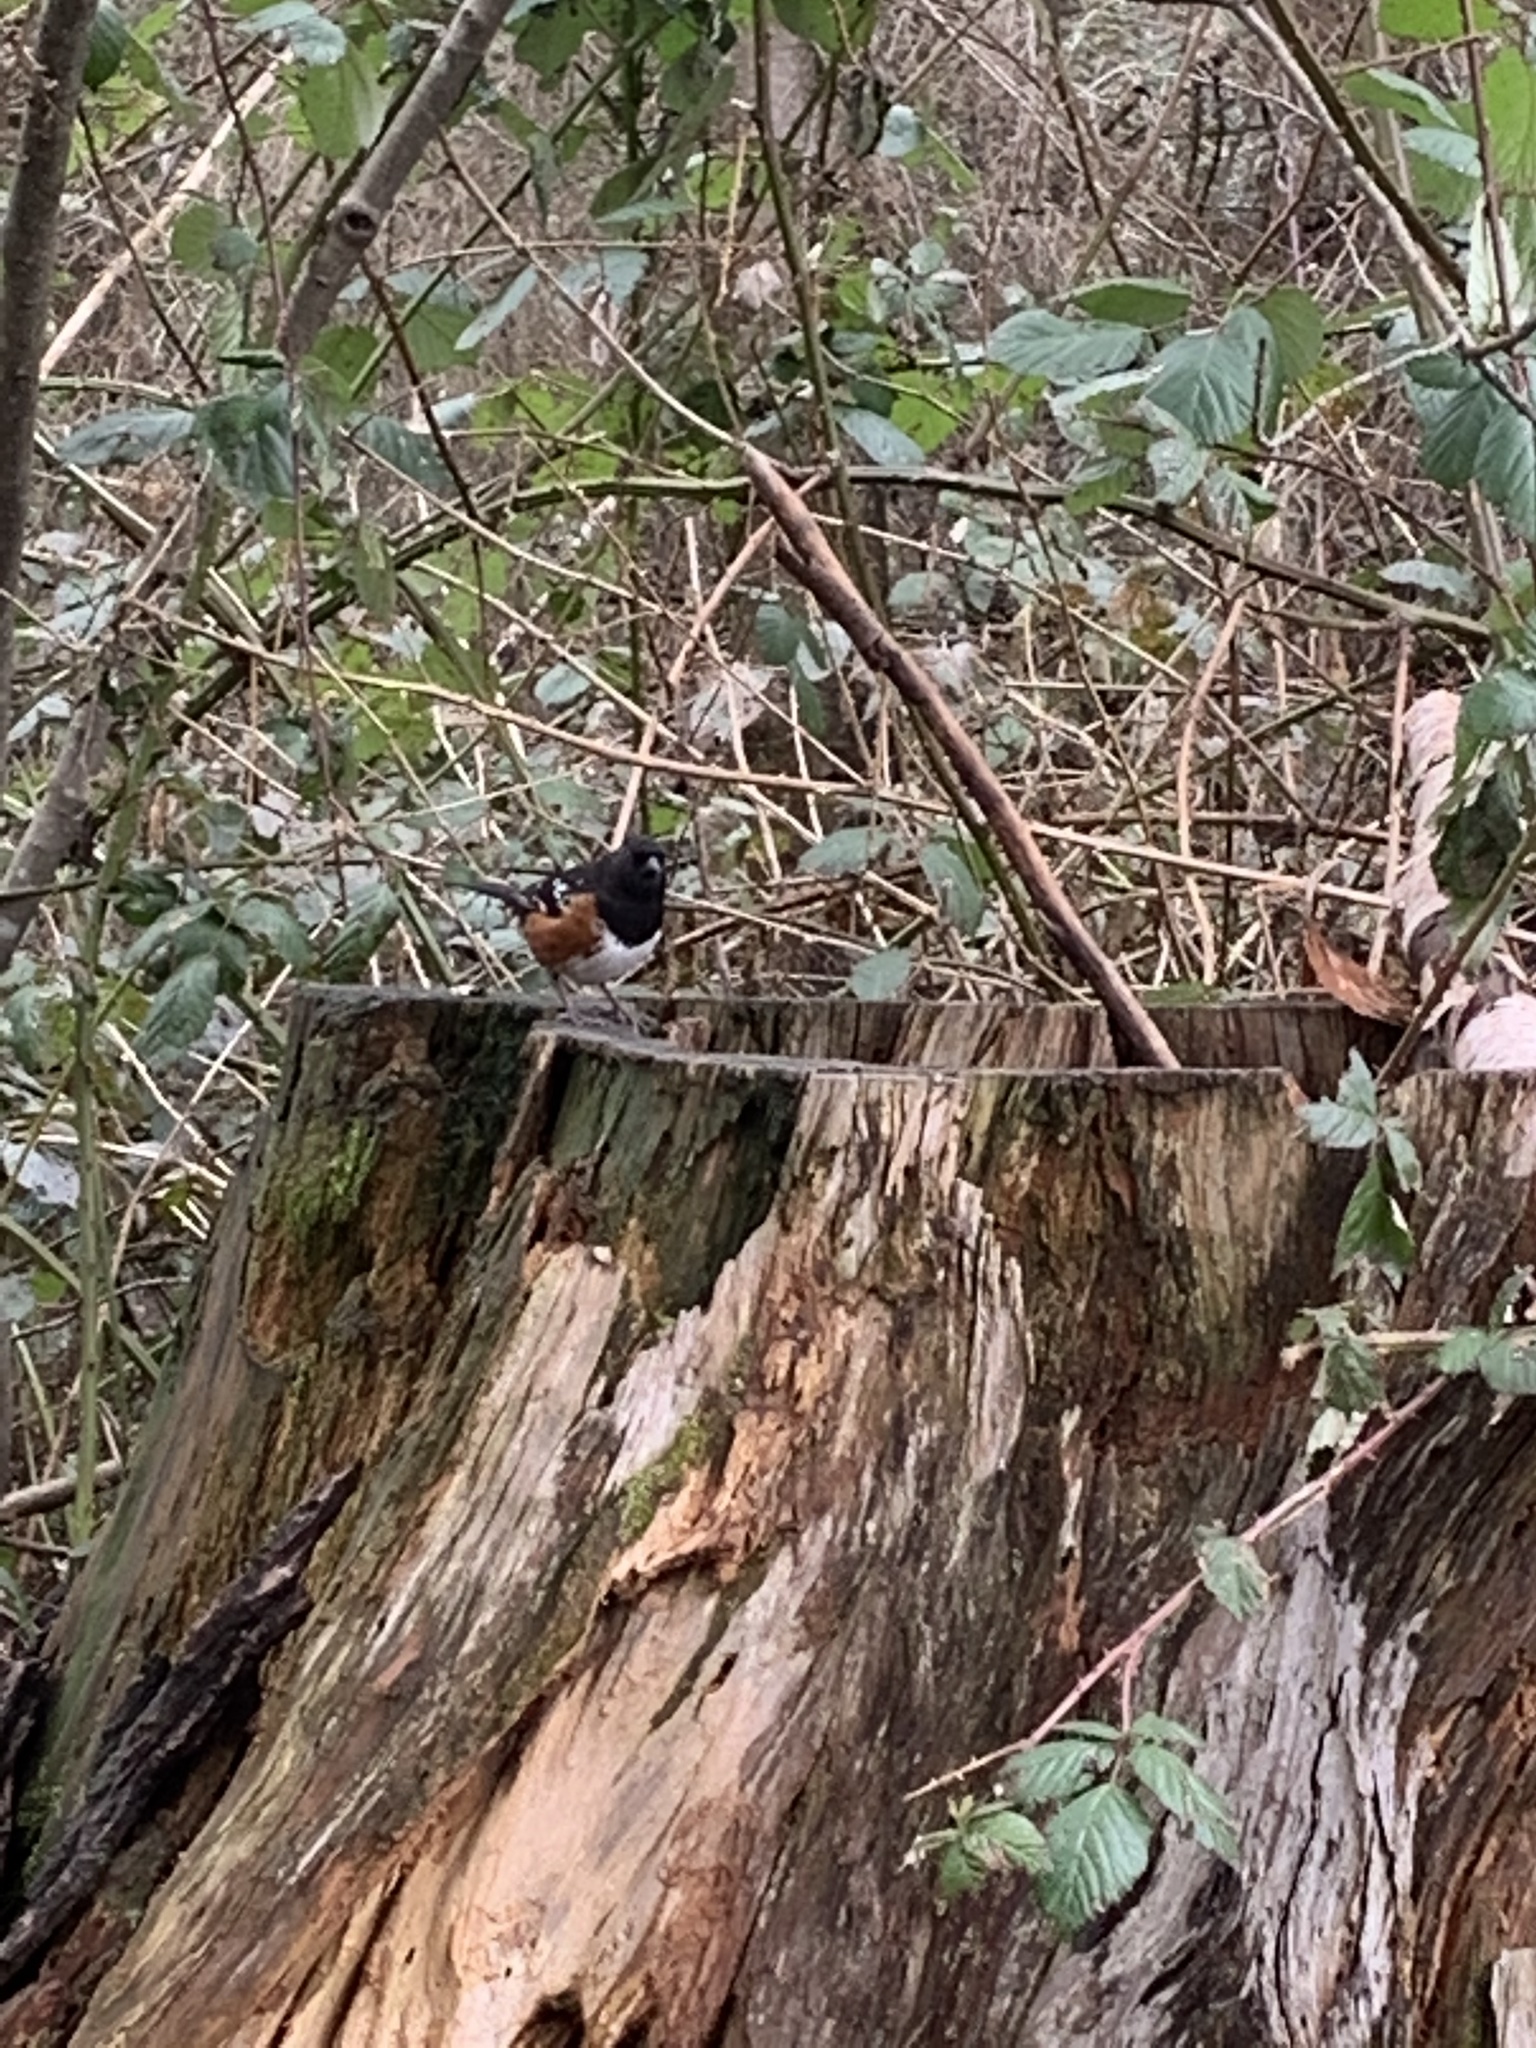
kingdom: Animalia
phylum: Chordata
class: Aves
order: Passeriformes
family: Passerellidae
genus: Pipilo
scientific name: Pipilo maculatus
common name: Spotted towhee
